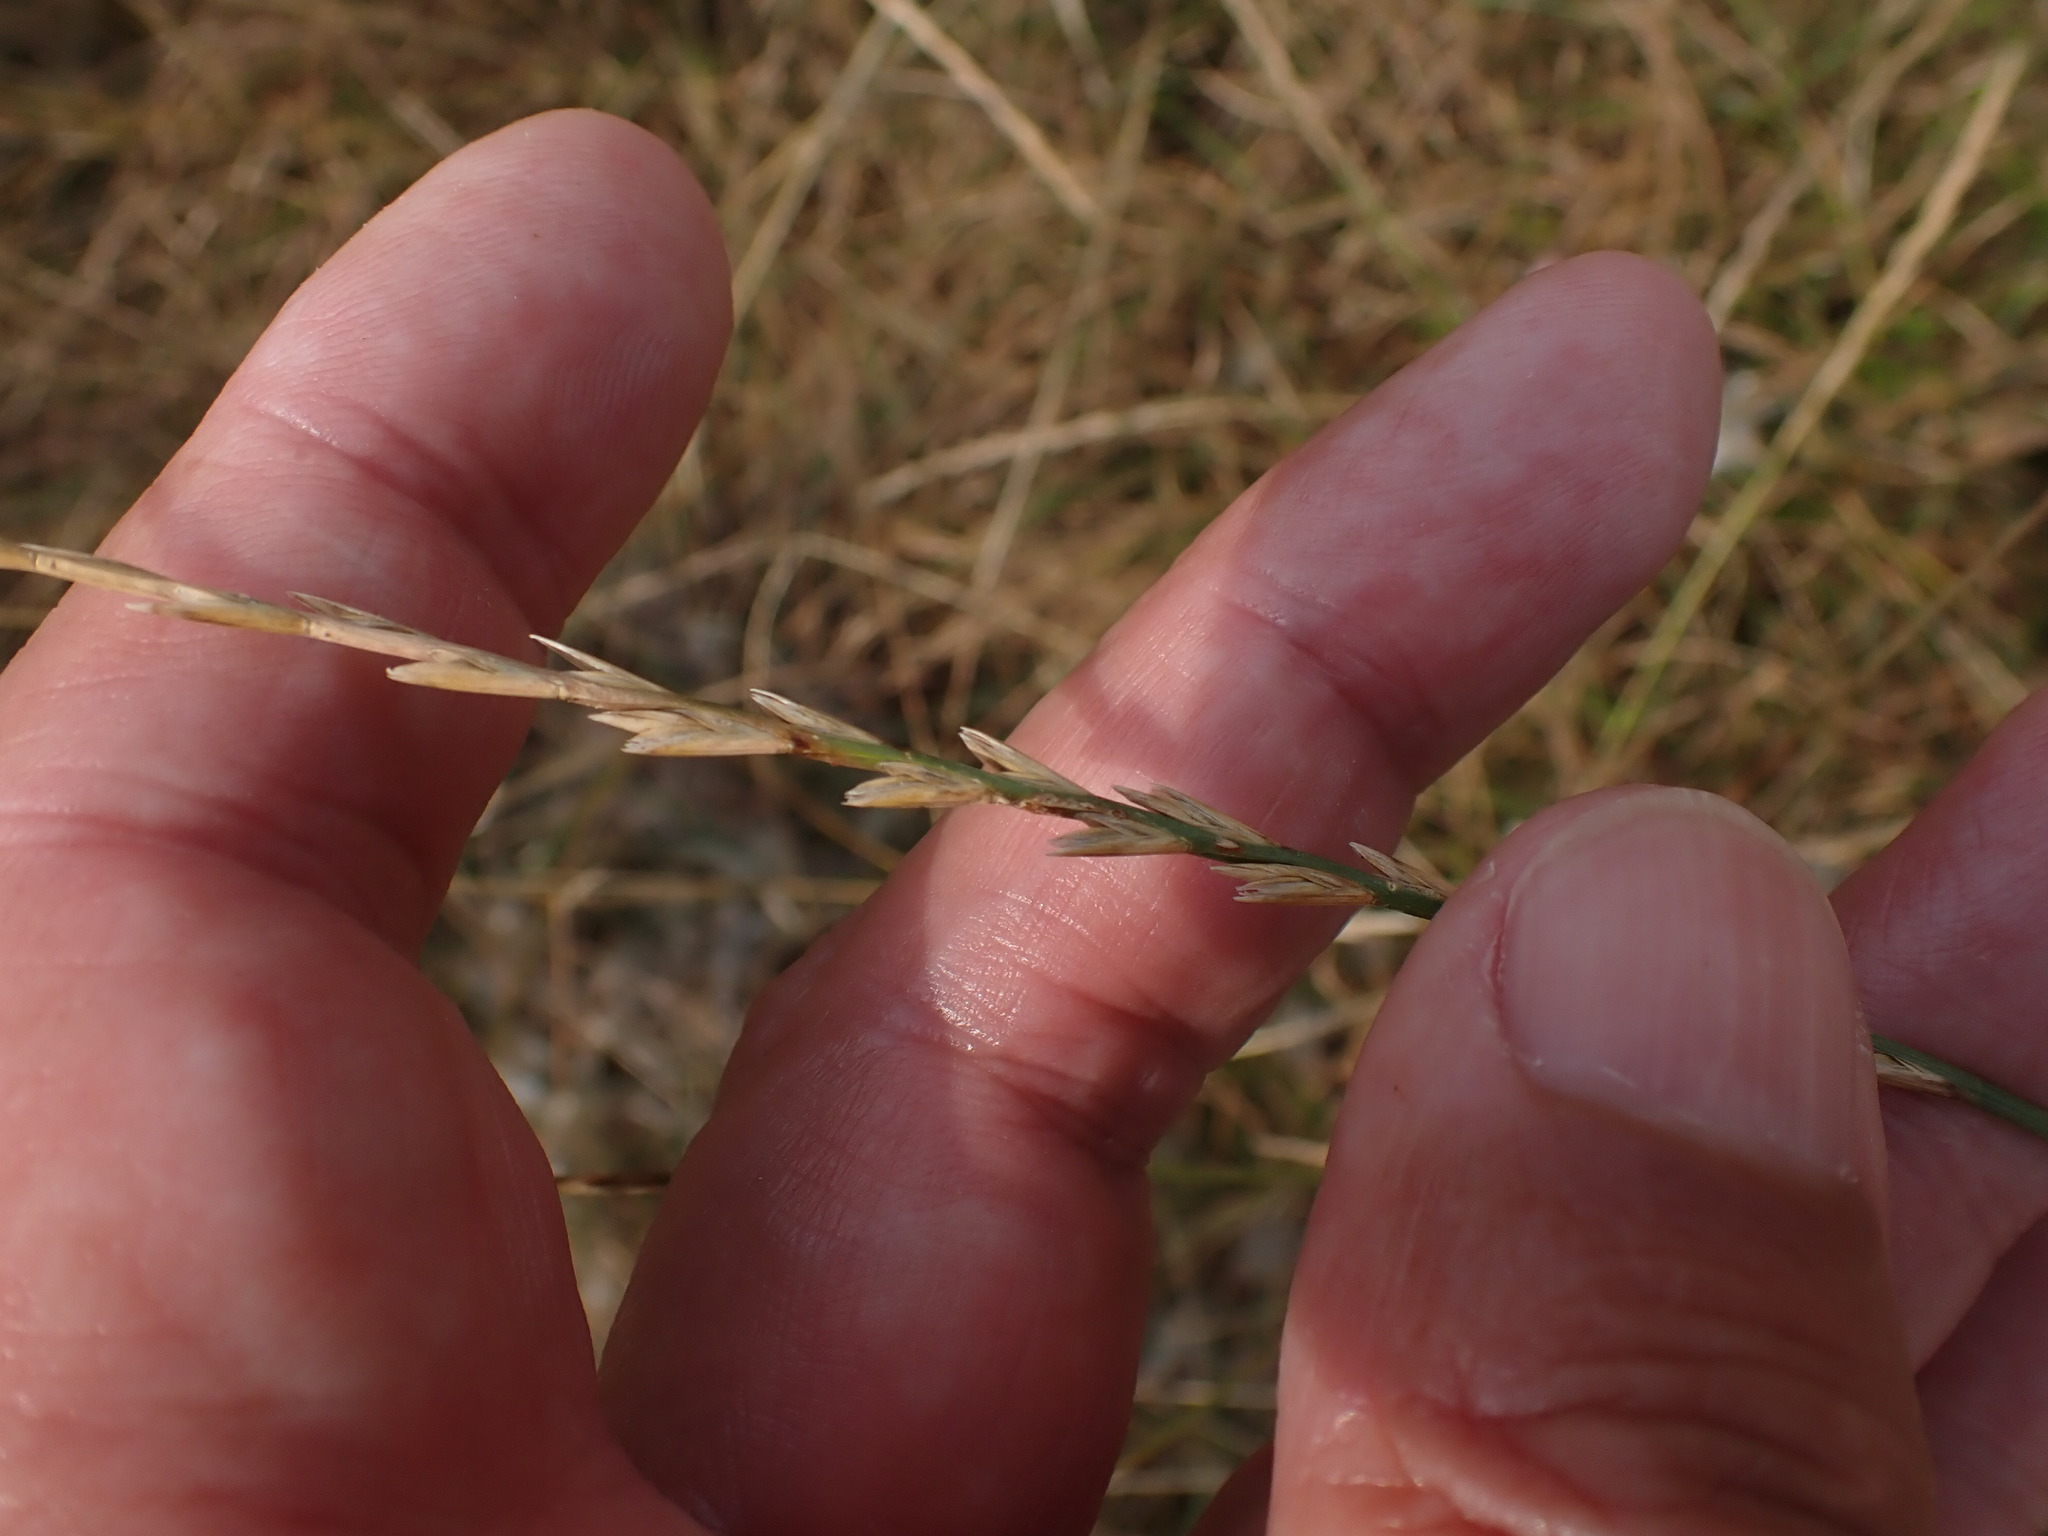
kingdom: Plantae
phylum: Tracheophyta
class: Liliopsida
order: Poales
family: Poaceae
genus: Lolium
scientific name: Lolium perenne
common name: Perennial ryegrass
